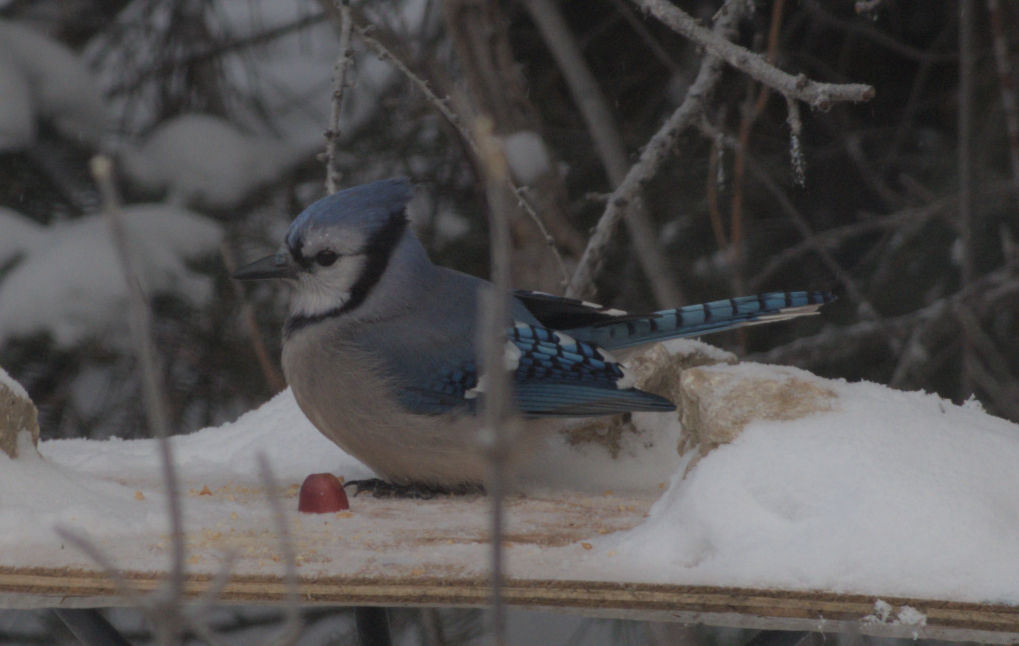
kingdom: Animalia
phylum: Chordata
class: Aves
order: Passeriformes
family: Corvidae
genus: Cyanocitta
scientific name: Cyanocitta cristata
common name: Blue jay
